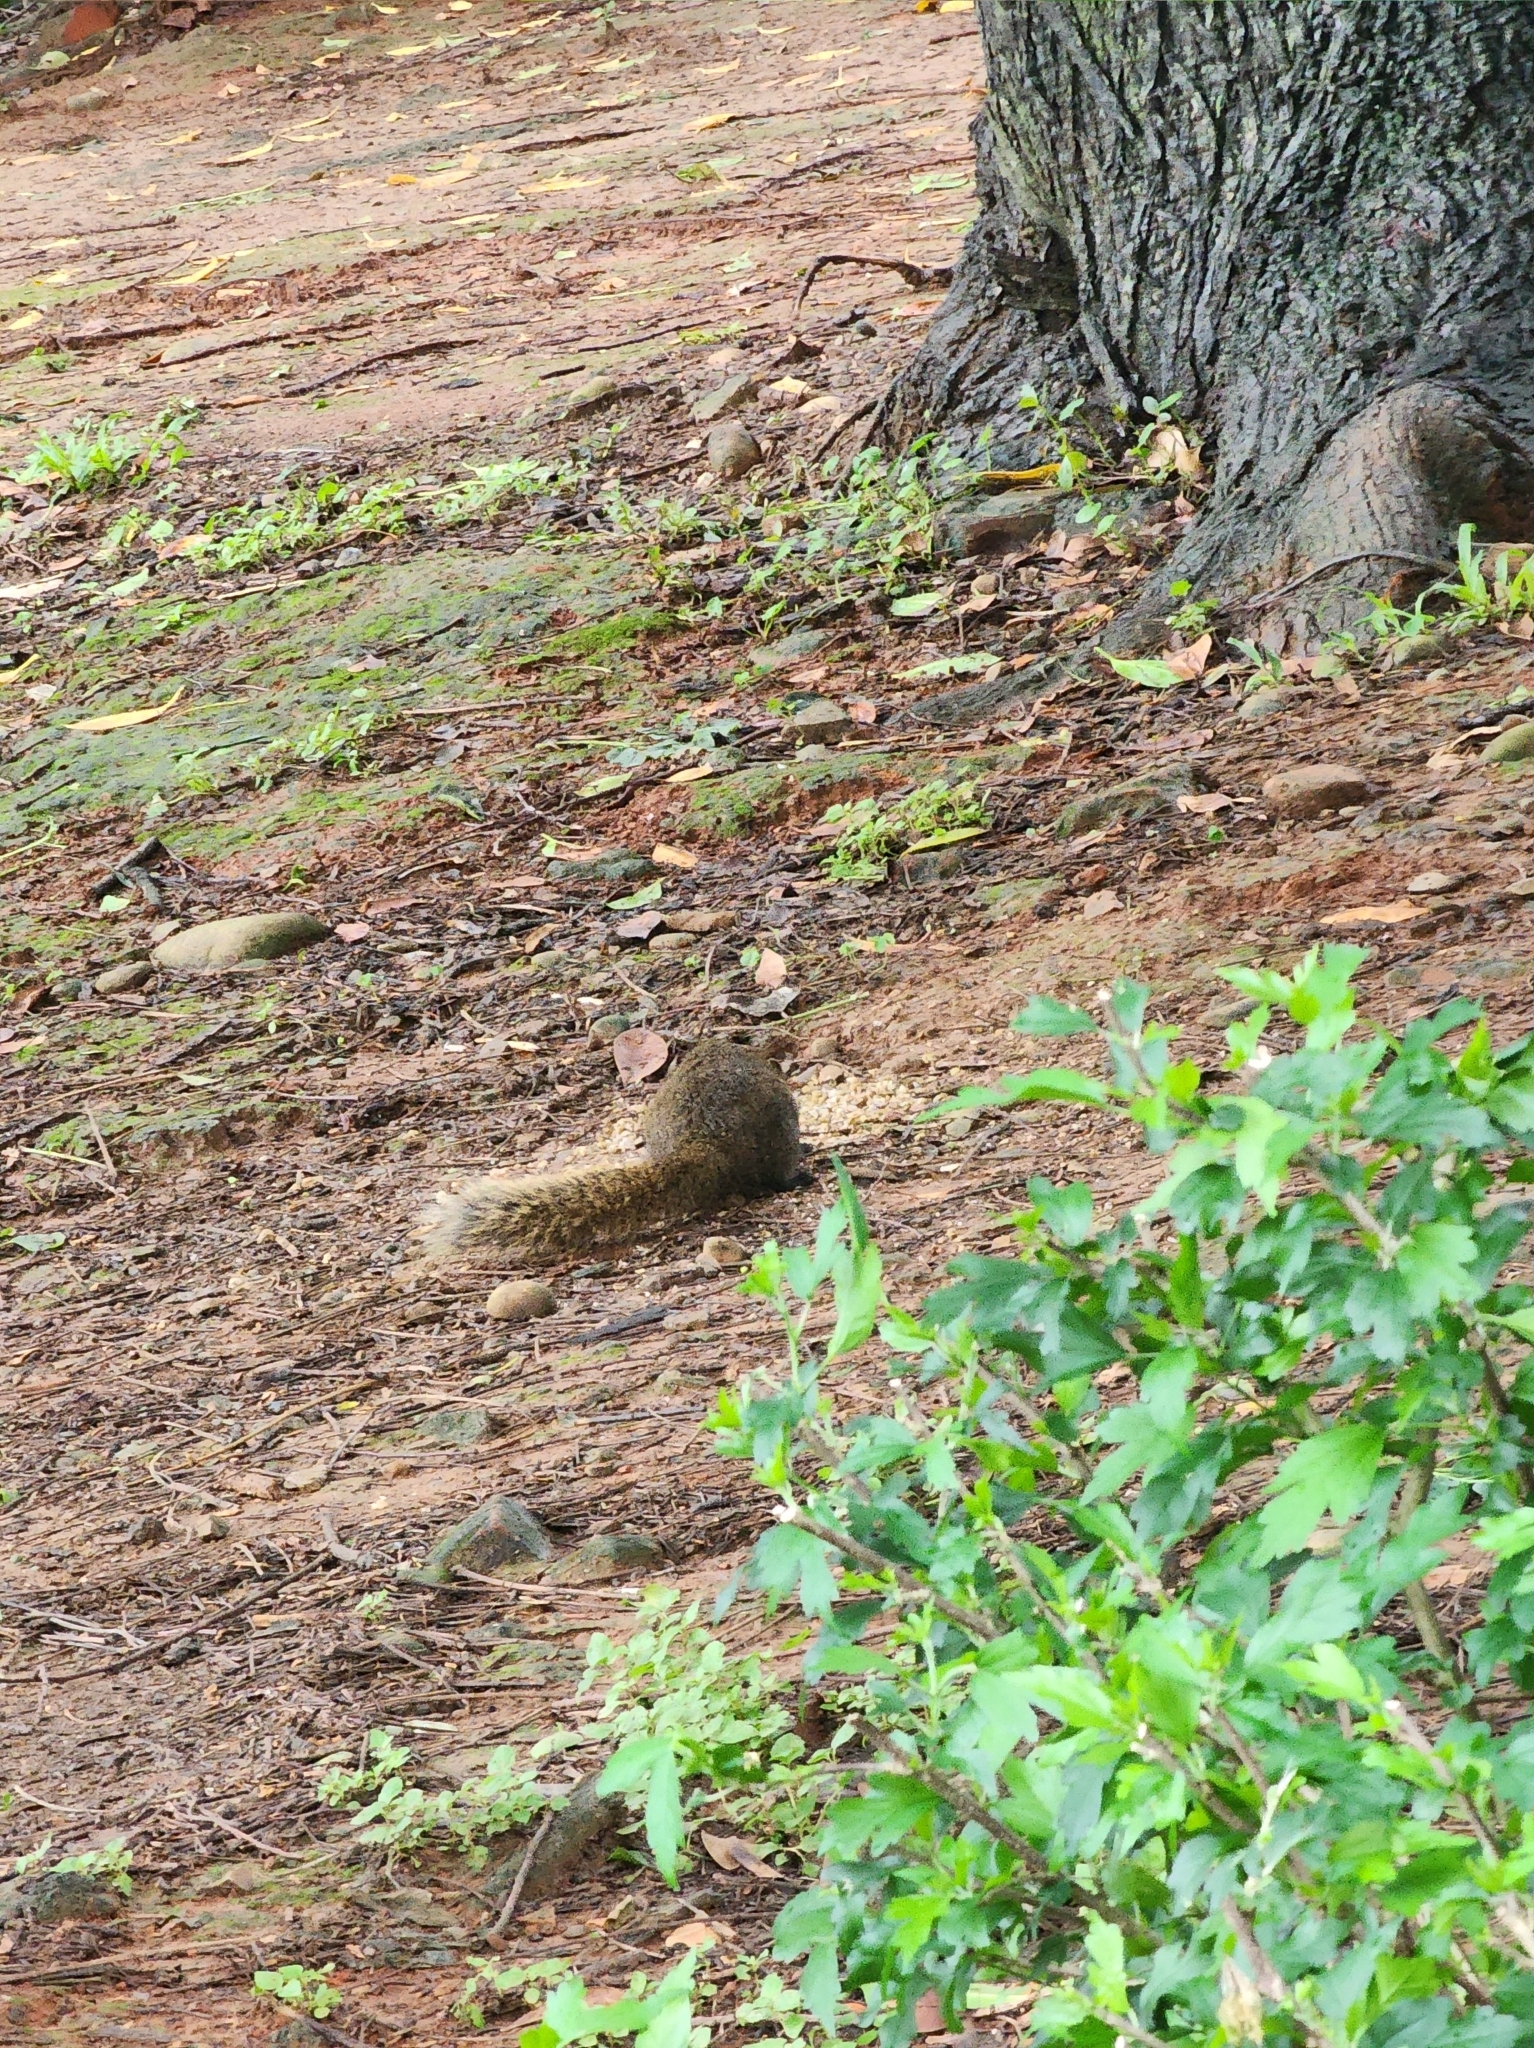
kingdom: Animalia
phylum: Chordata
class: Mammalia
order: Rodentia
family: Sciuridae
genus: Callosciurus
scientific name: Callosciurus erythraeus
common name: Pallas's squirrel
